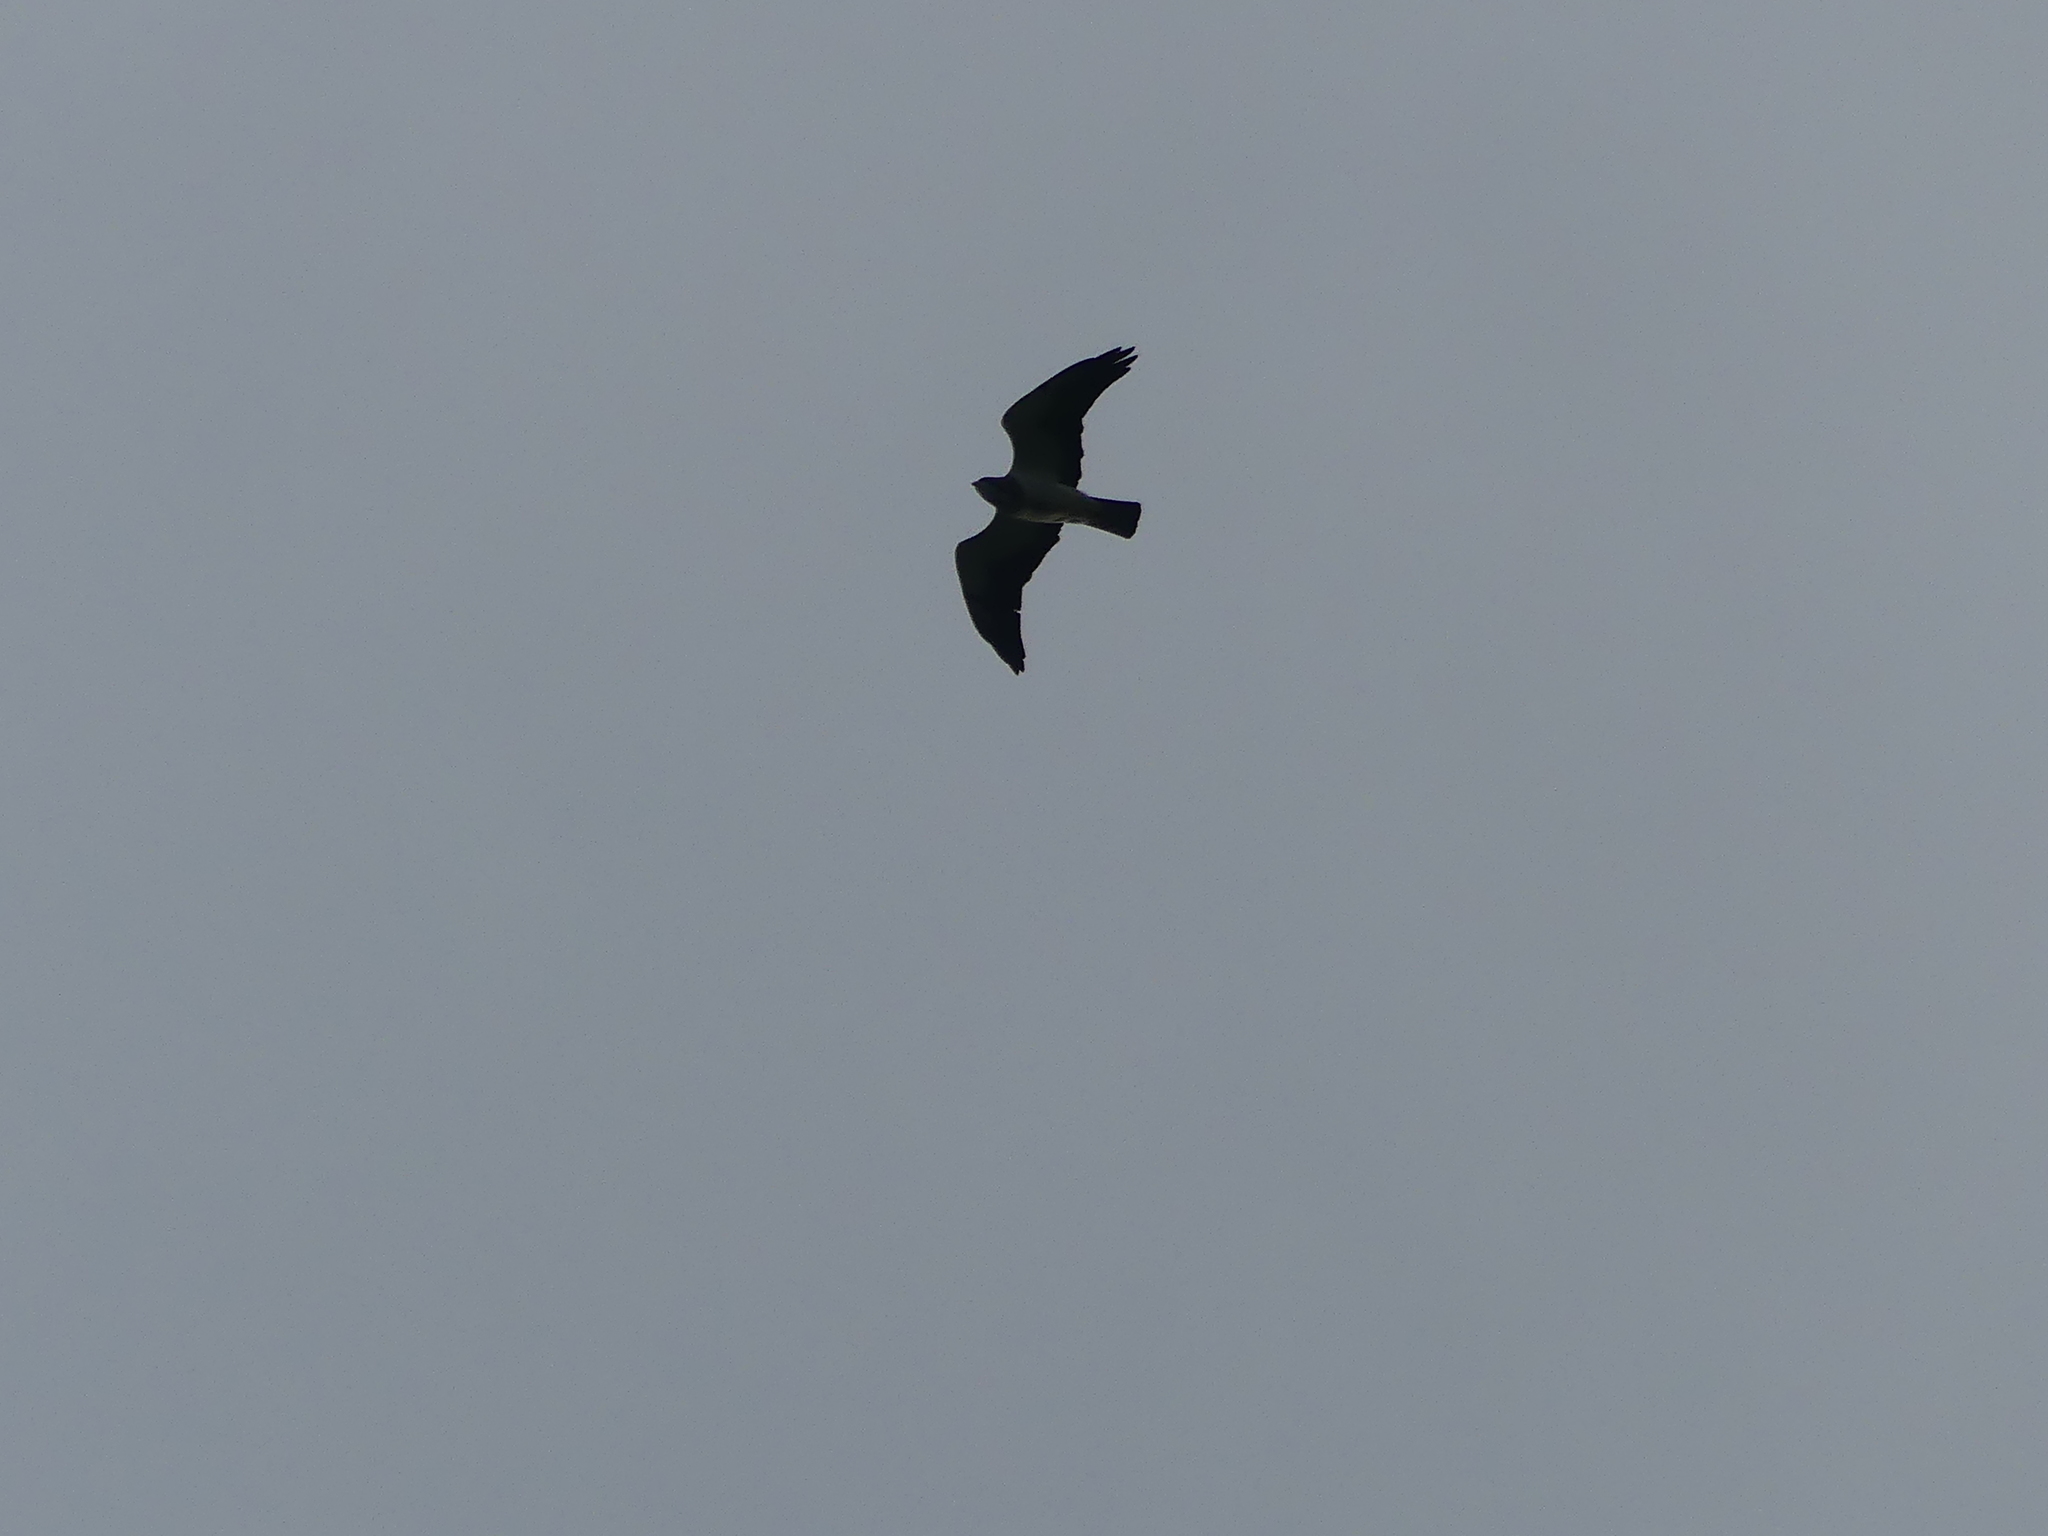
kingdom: Animalia
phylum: Chordata
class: Aves
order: Accipitriformes
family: Accipitridae
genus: Ictinia
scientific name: Ictinia mississippiensis
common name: Mississippi kite
